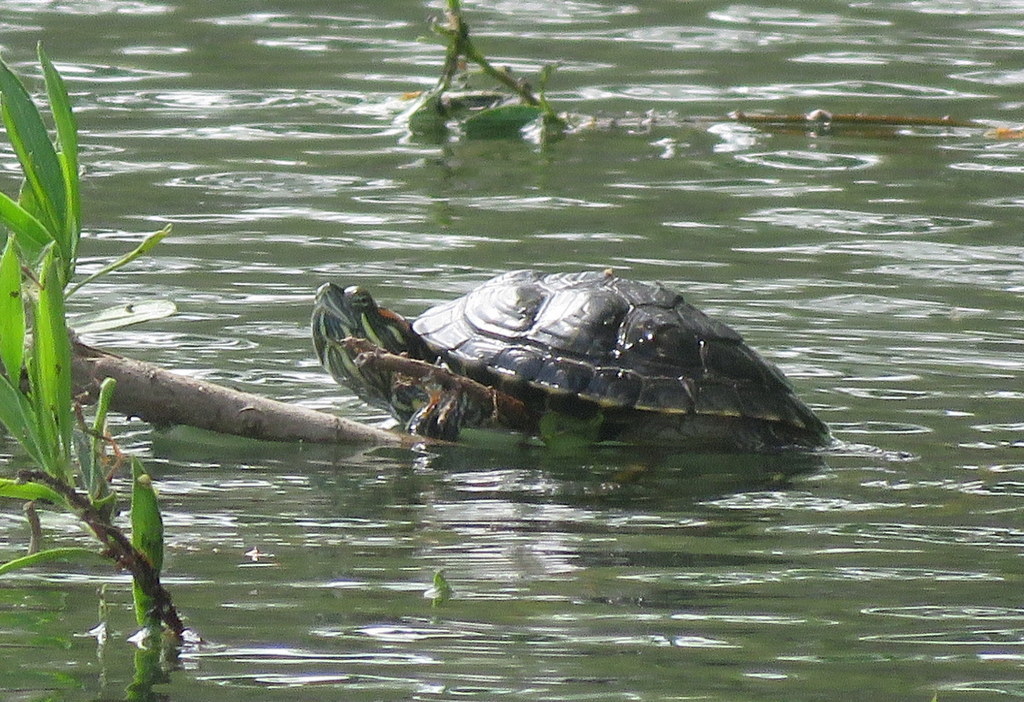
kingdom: Animalia
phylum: Chordata
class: Testudines
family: Emydidae
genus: Trachemys
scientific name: Trachemys scripta
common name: Slider
